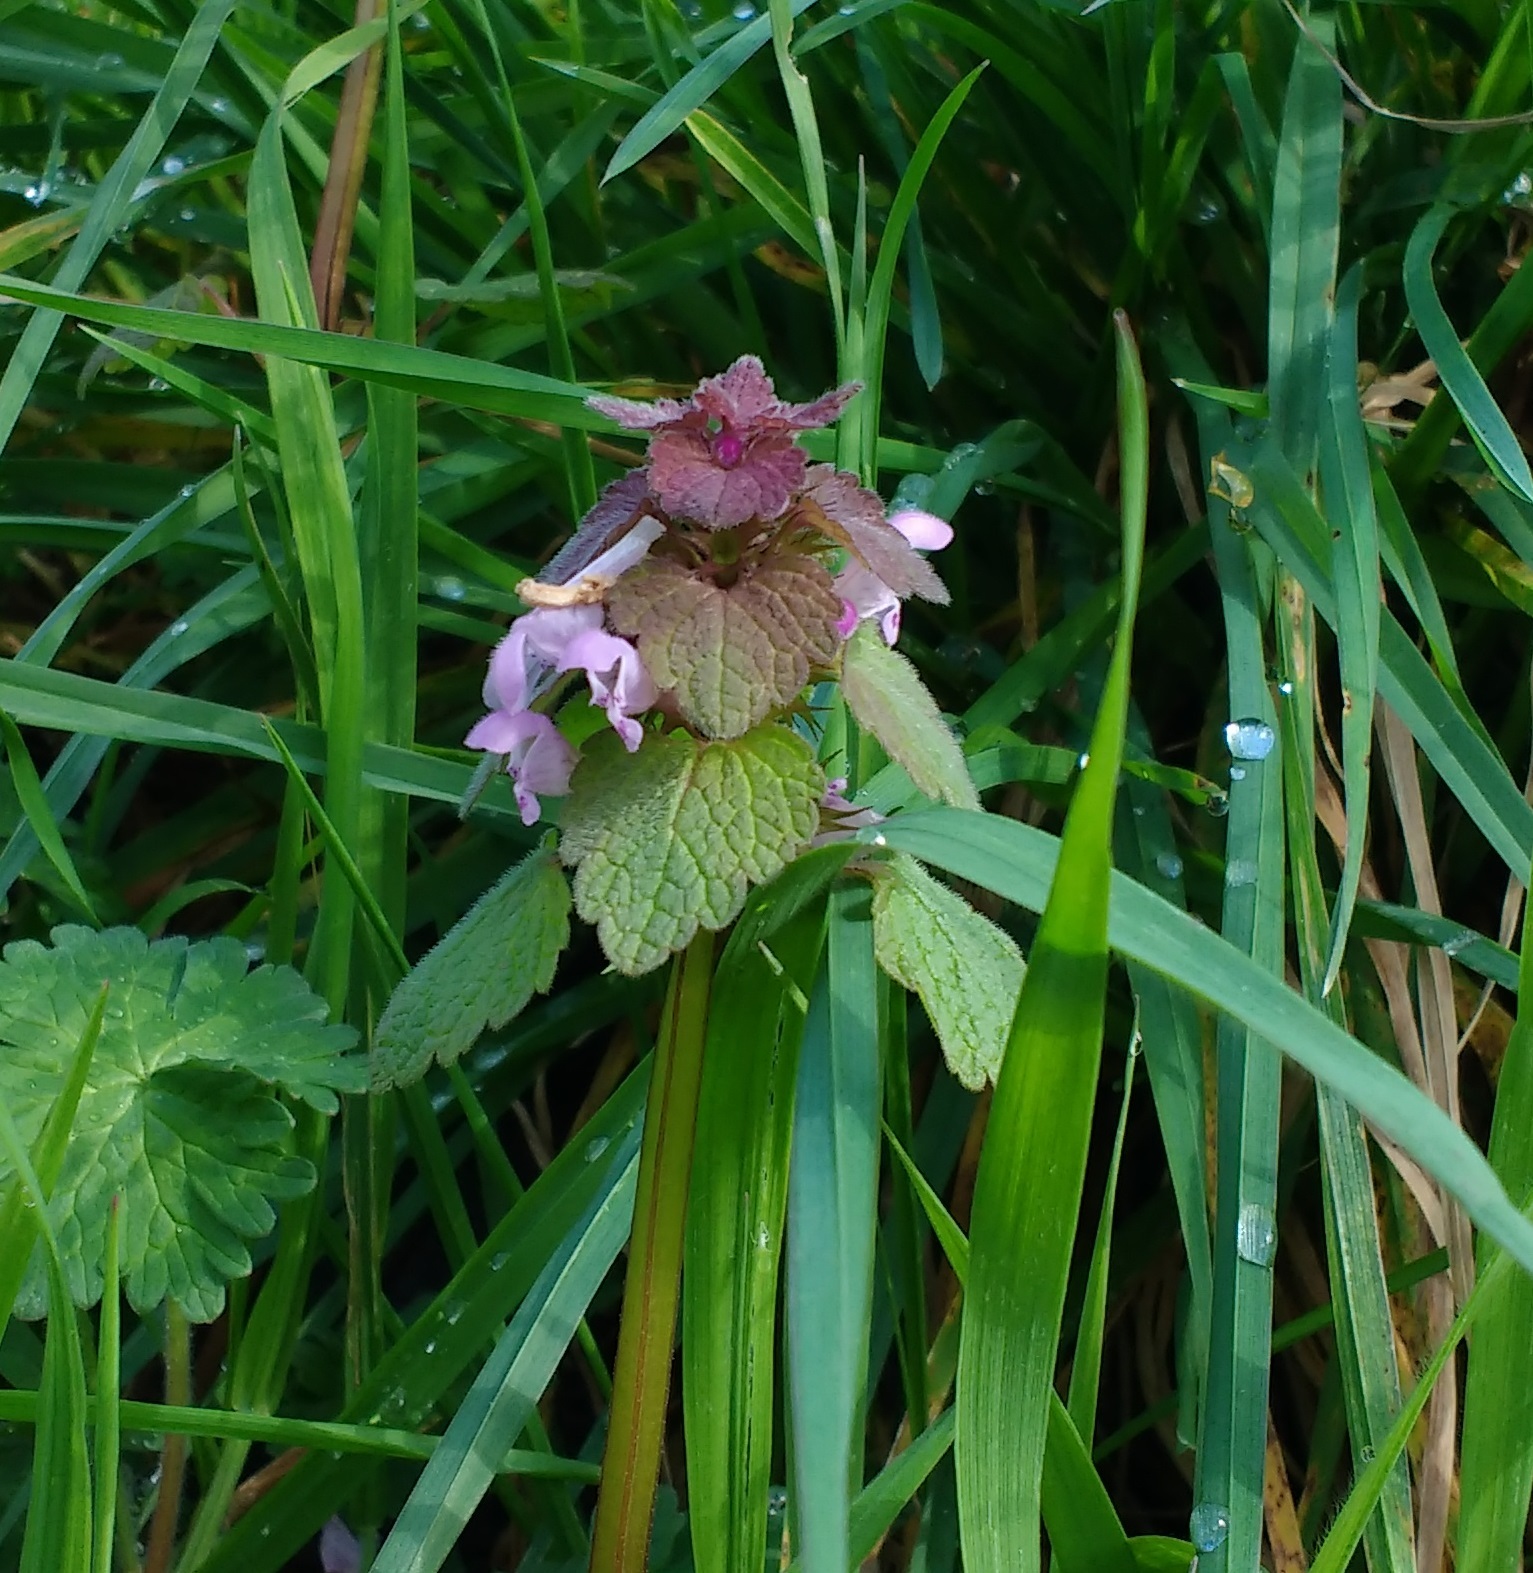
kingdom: Plantae
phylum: Tracheophyta
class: Magnoliopsida
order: Lamiales
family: Lamiaceae
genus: Lamium
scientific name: Lamium purpureum
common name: Red dead-nettle
